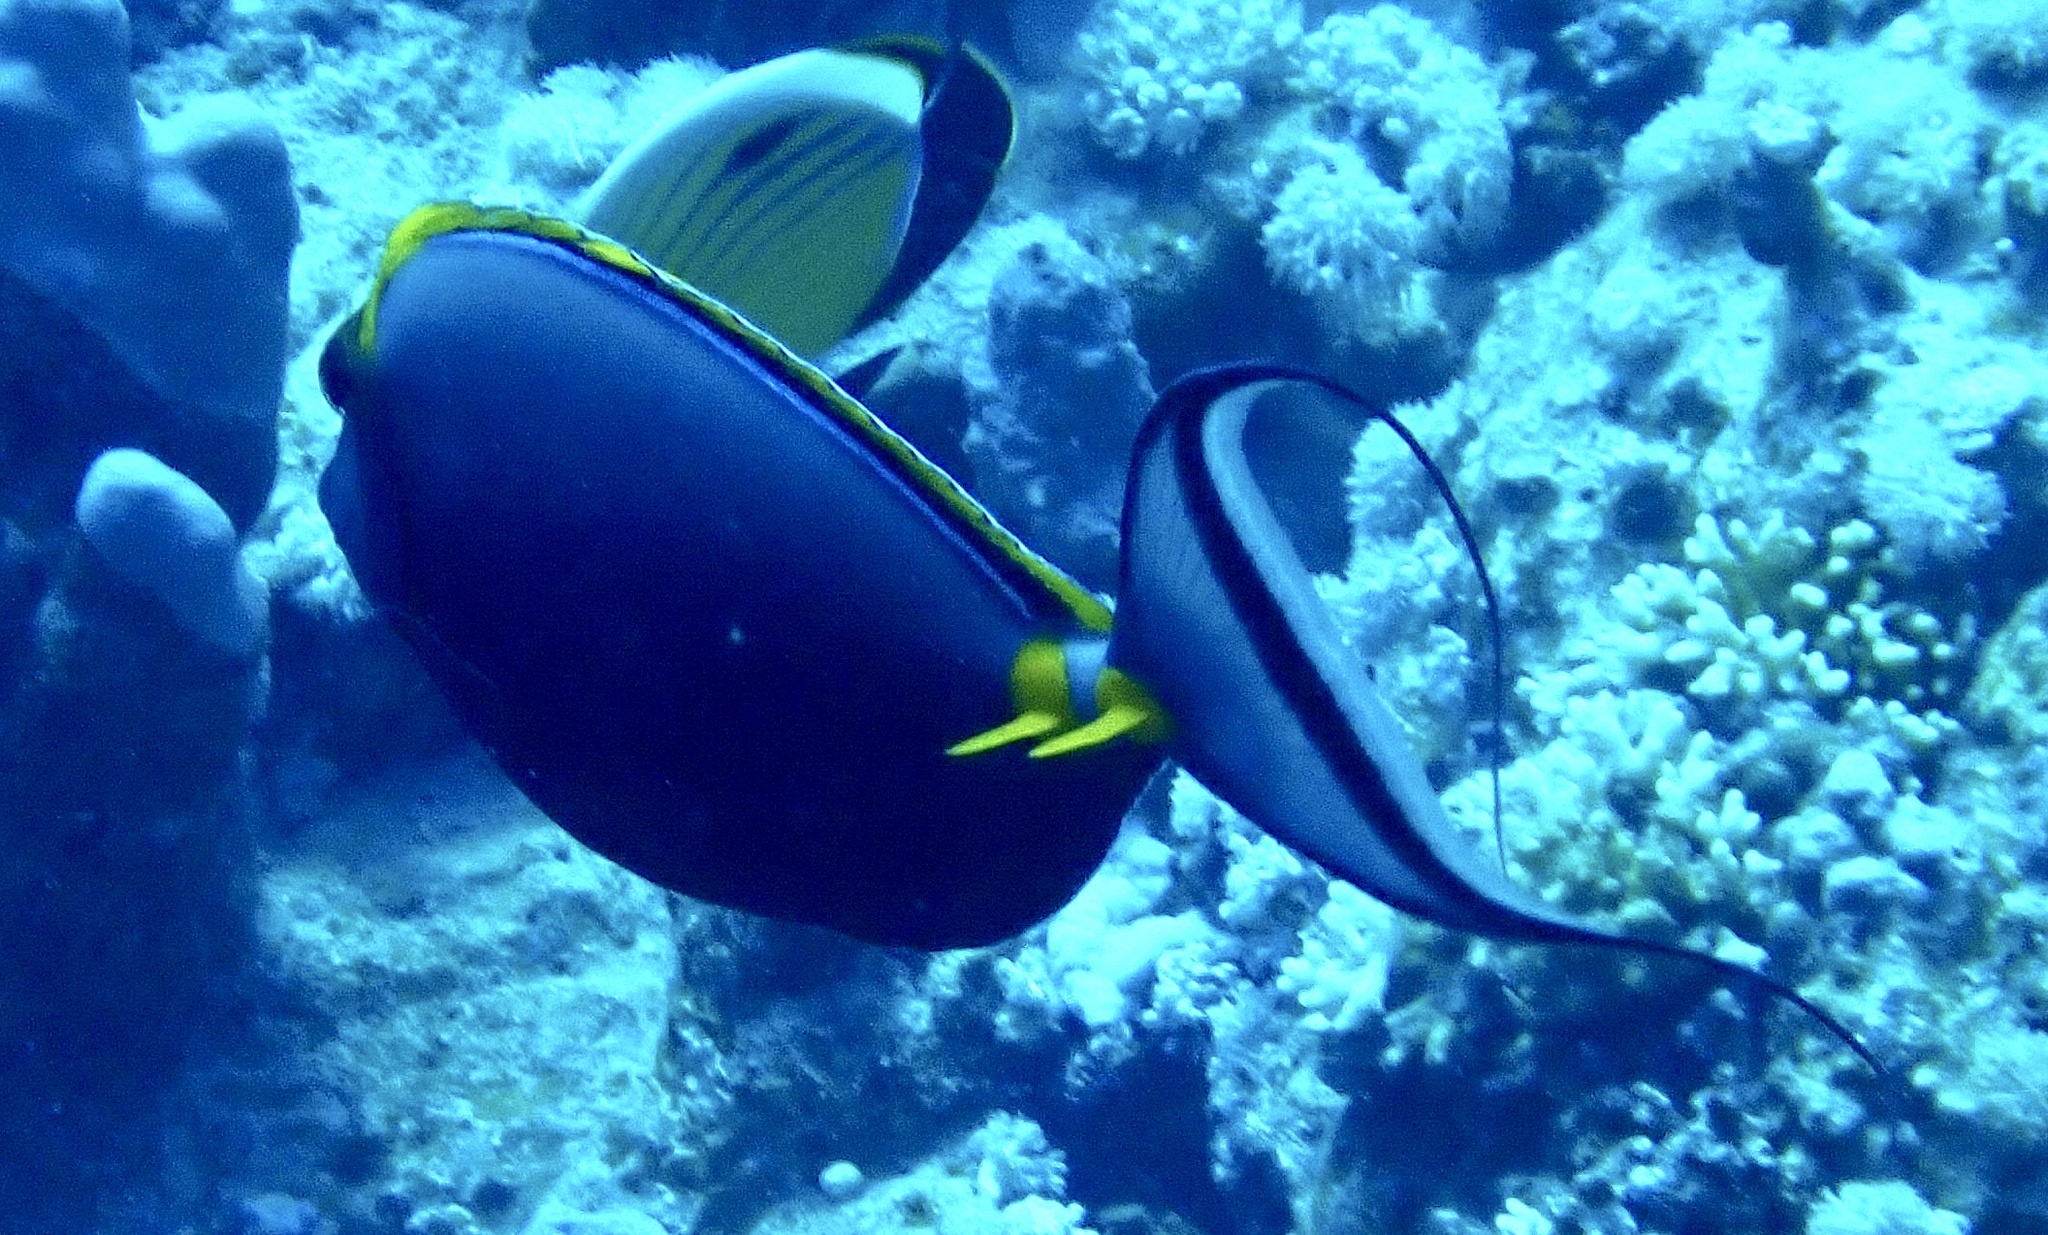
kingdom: Animalia
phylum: Chordata
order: Perciformes
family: Acanthuridae
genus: Naso
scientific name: Naso elegans
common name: Orangespine unicornfish
